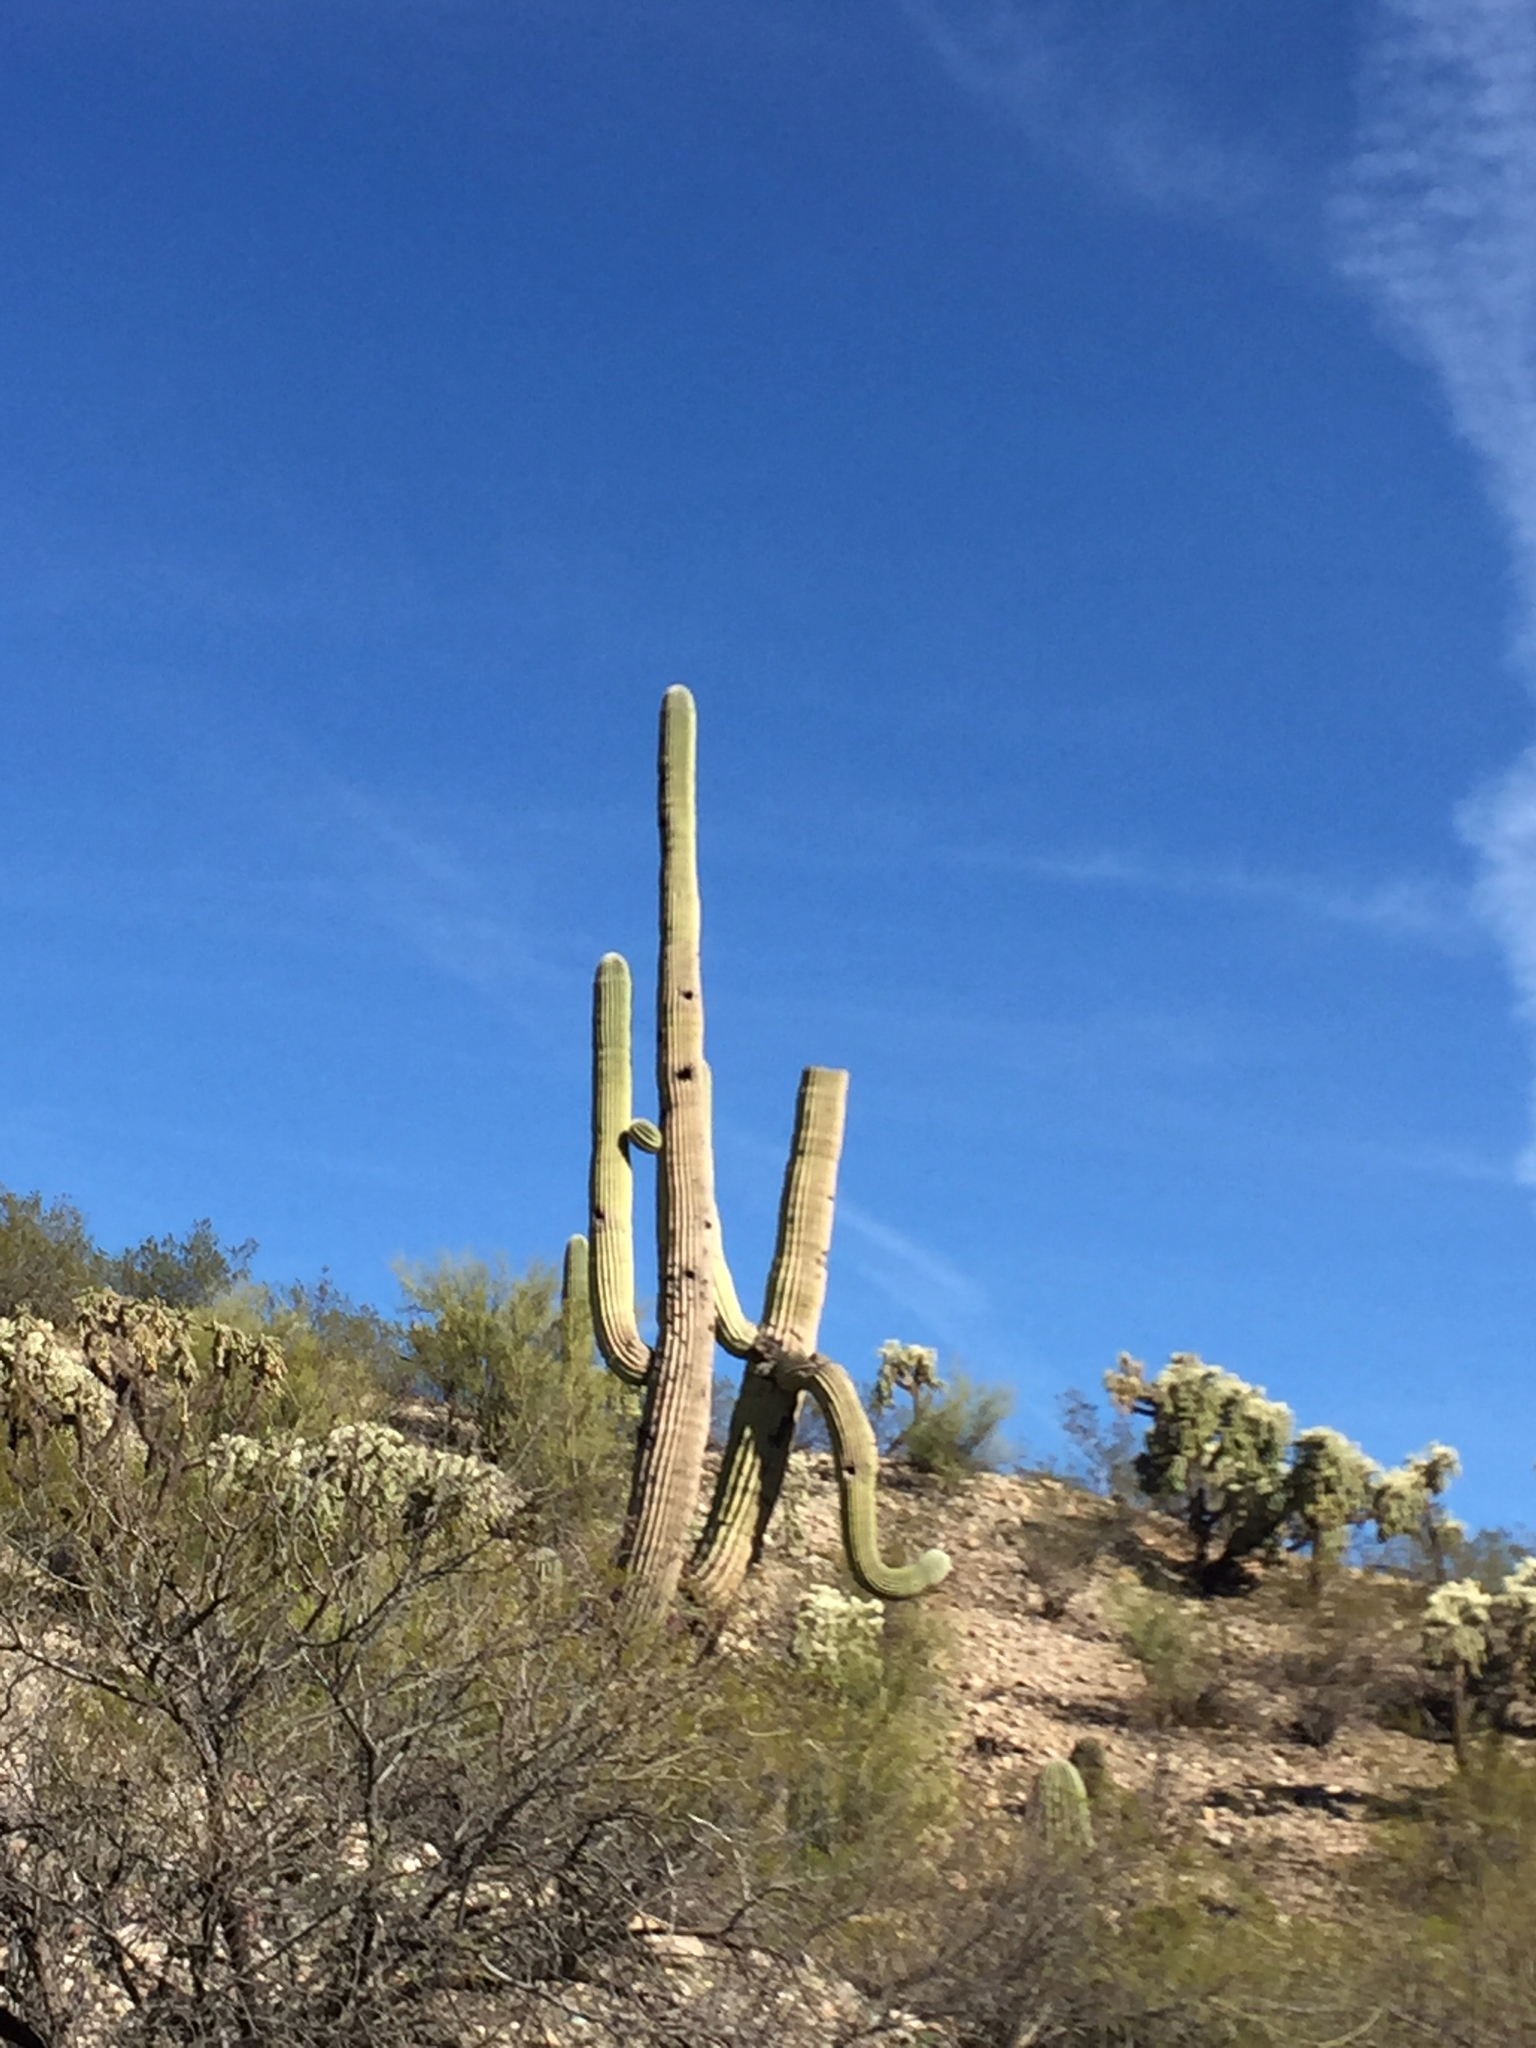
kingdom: Plantae
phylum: Tracheophyta
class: Magnoliopsida
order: Caryophyllales
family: Cactaceae
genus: Carnegiea
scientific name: Carnegiea gigantea
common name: Saguaro
